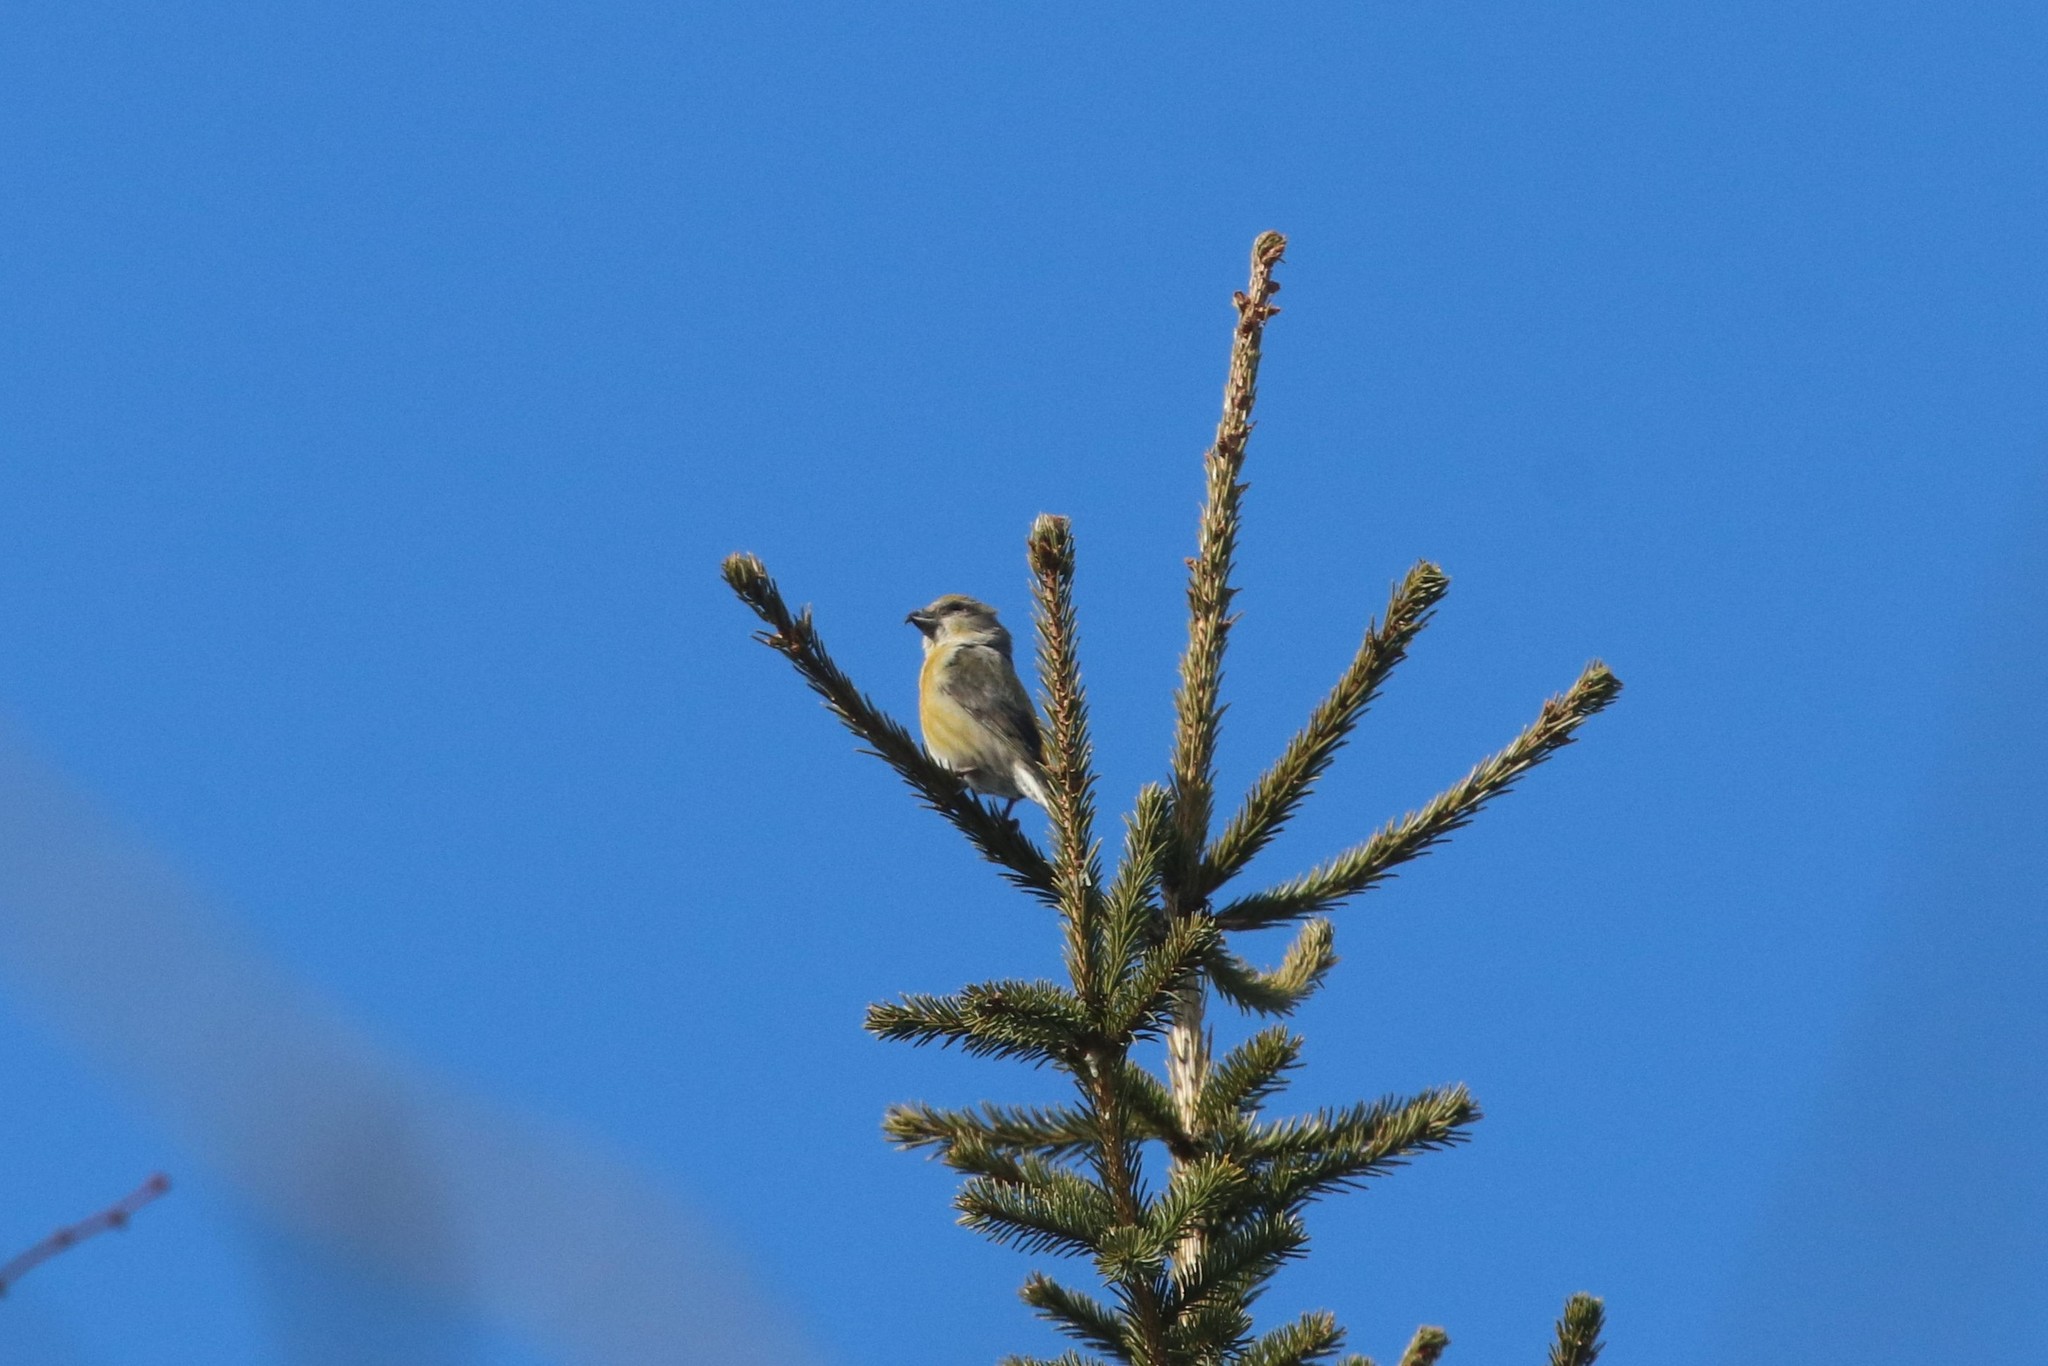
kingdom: Animalia
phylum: Chordata
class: Aves
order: Passeriformes
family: Fringillidae
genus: Loxia
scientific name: Loxia curvirostra
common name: Red crossbill
